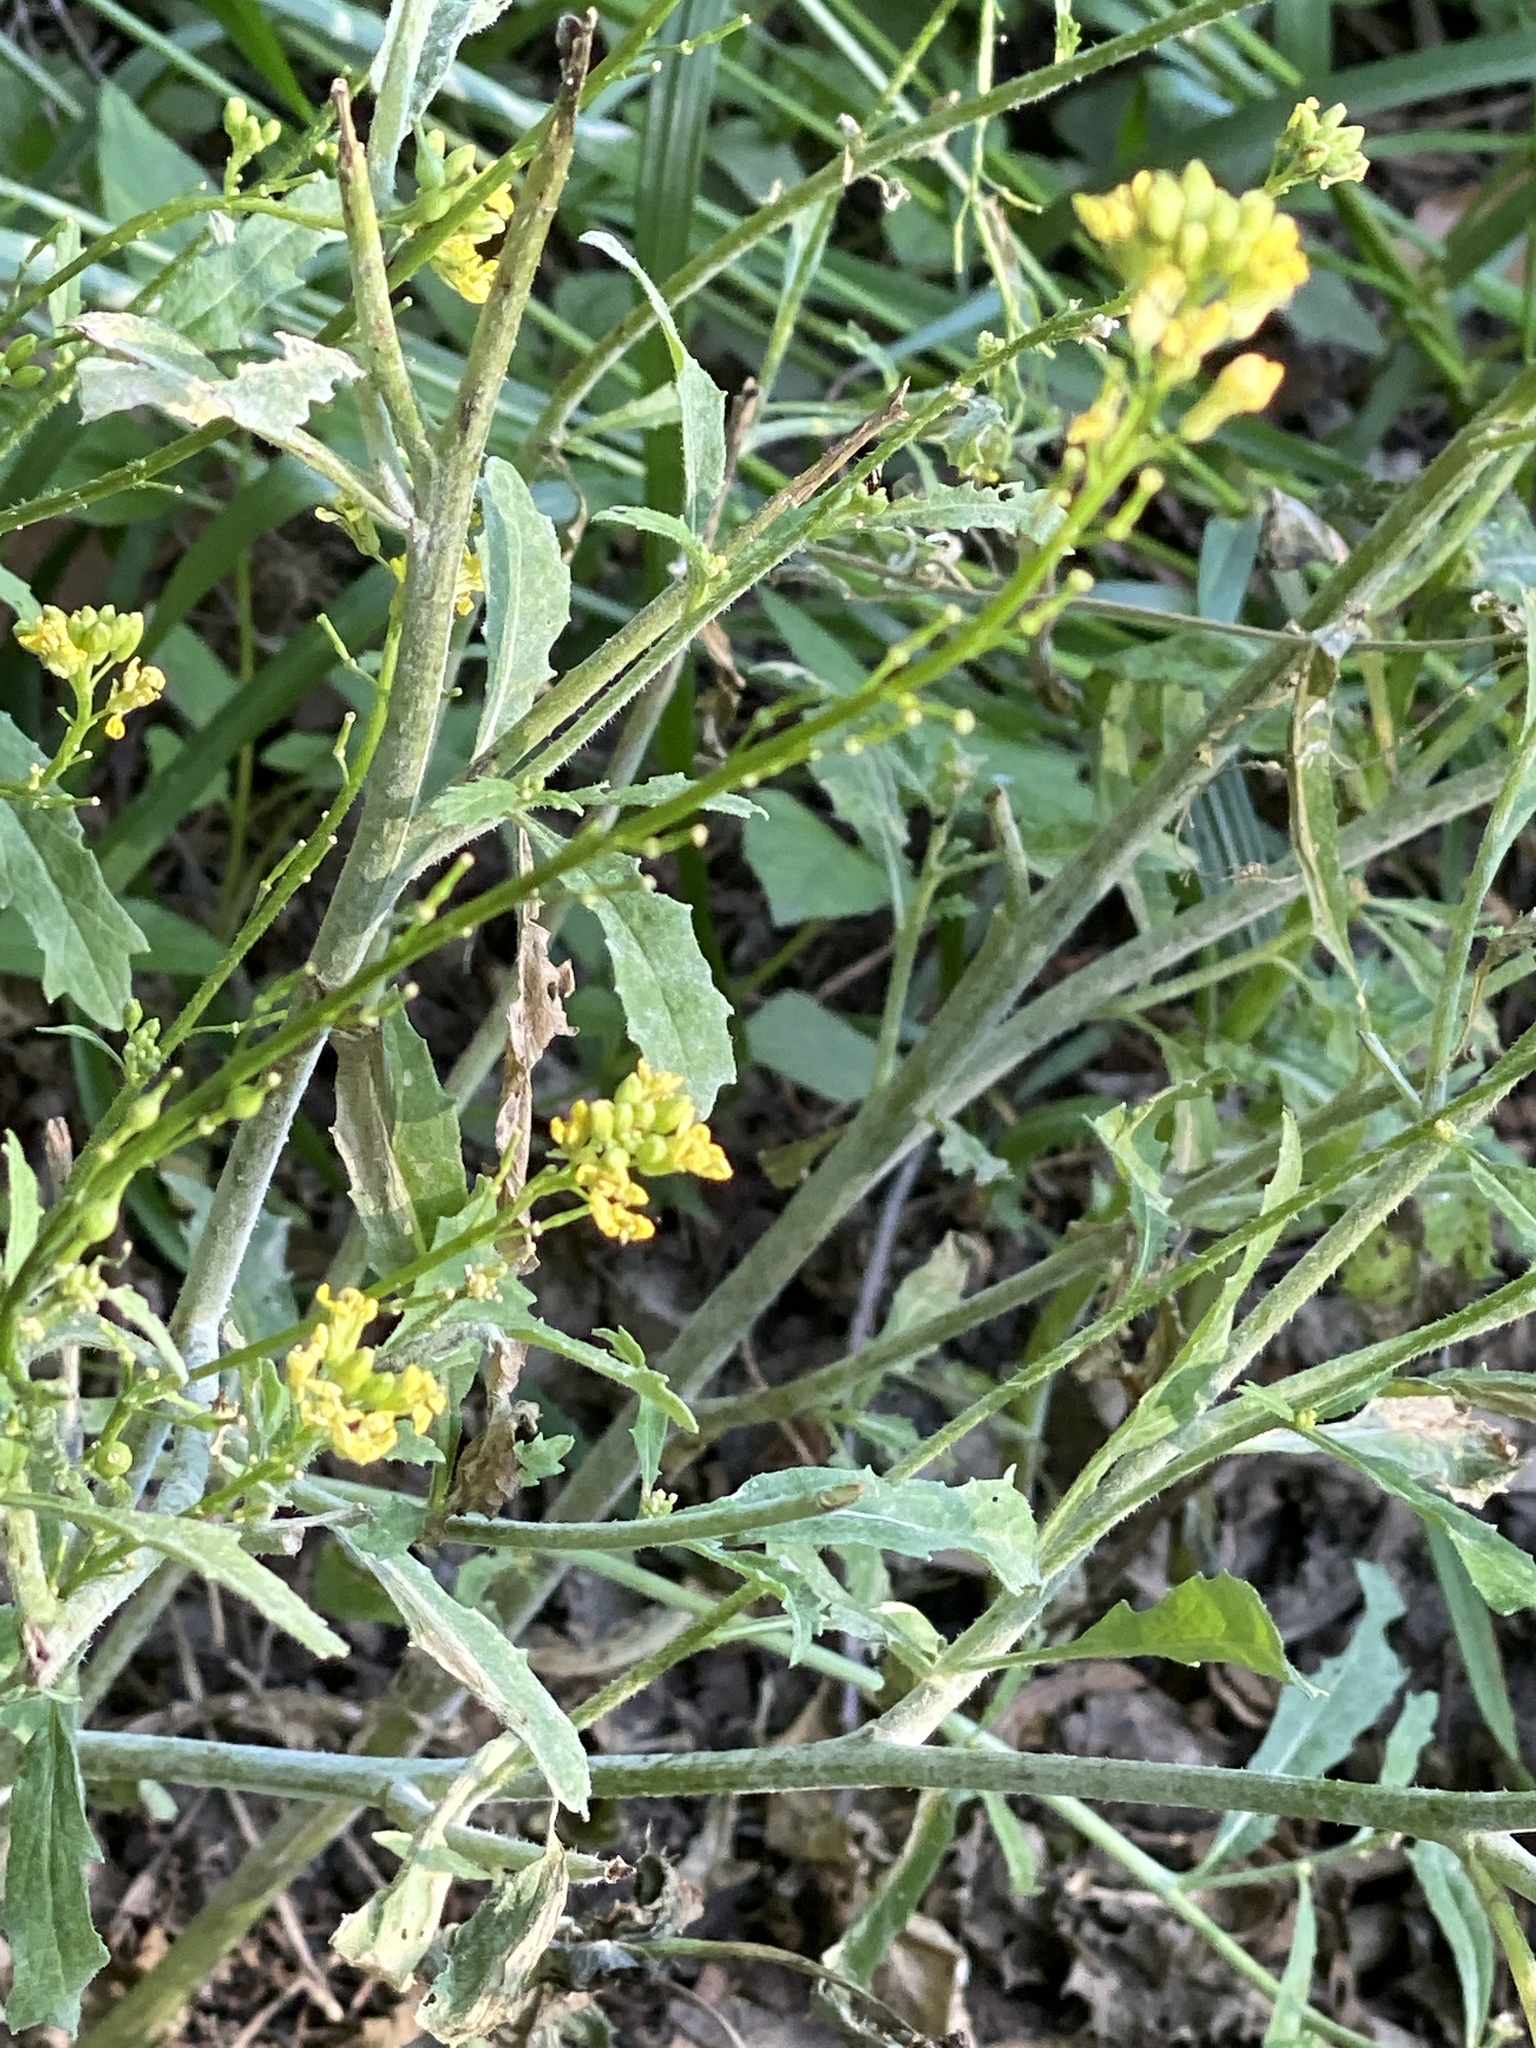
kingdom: Plantae
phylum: Tracheophyta
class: Magnoliopsida
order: Brassicales
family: Brassicaceae
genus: Rapistrum
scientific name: Rapistrum rugosum
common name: Annual bastardcabbage
